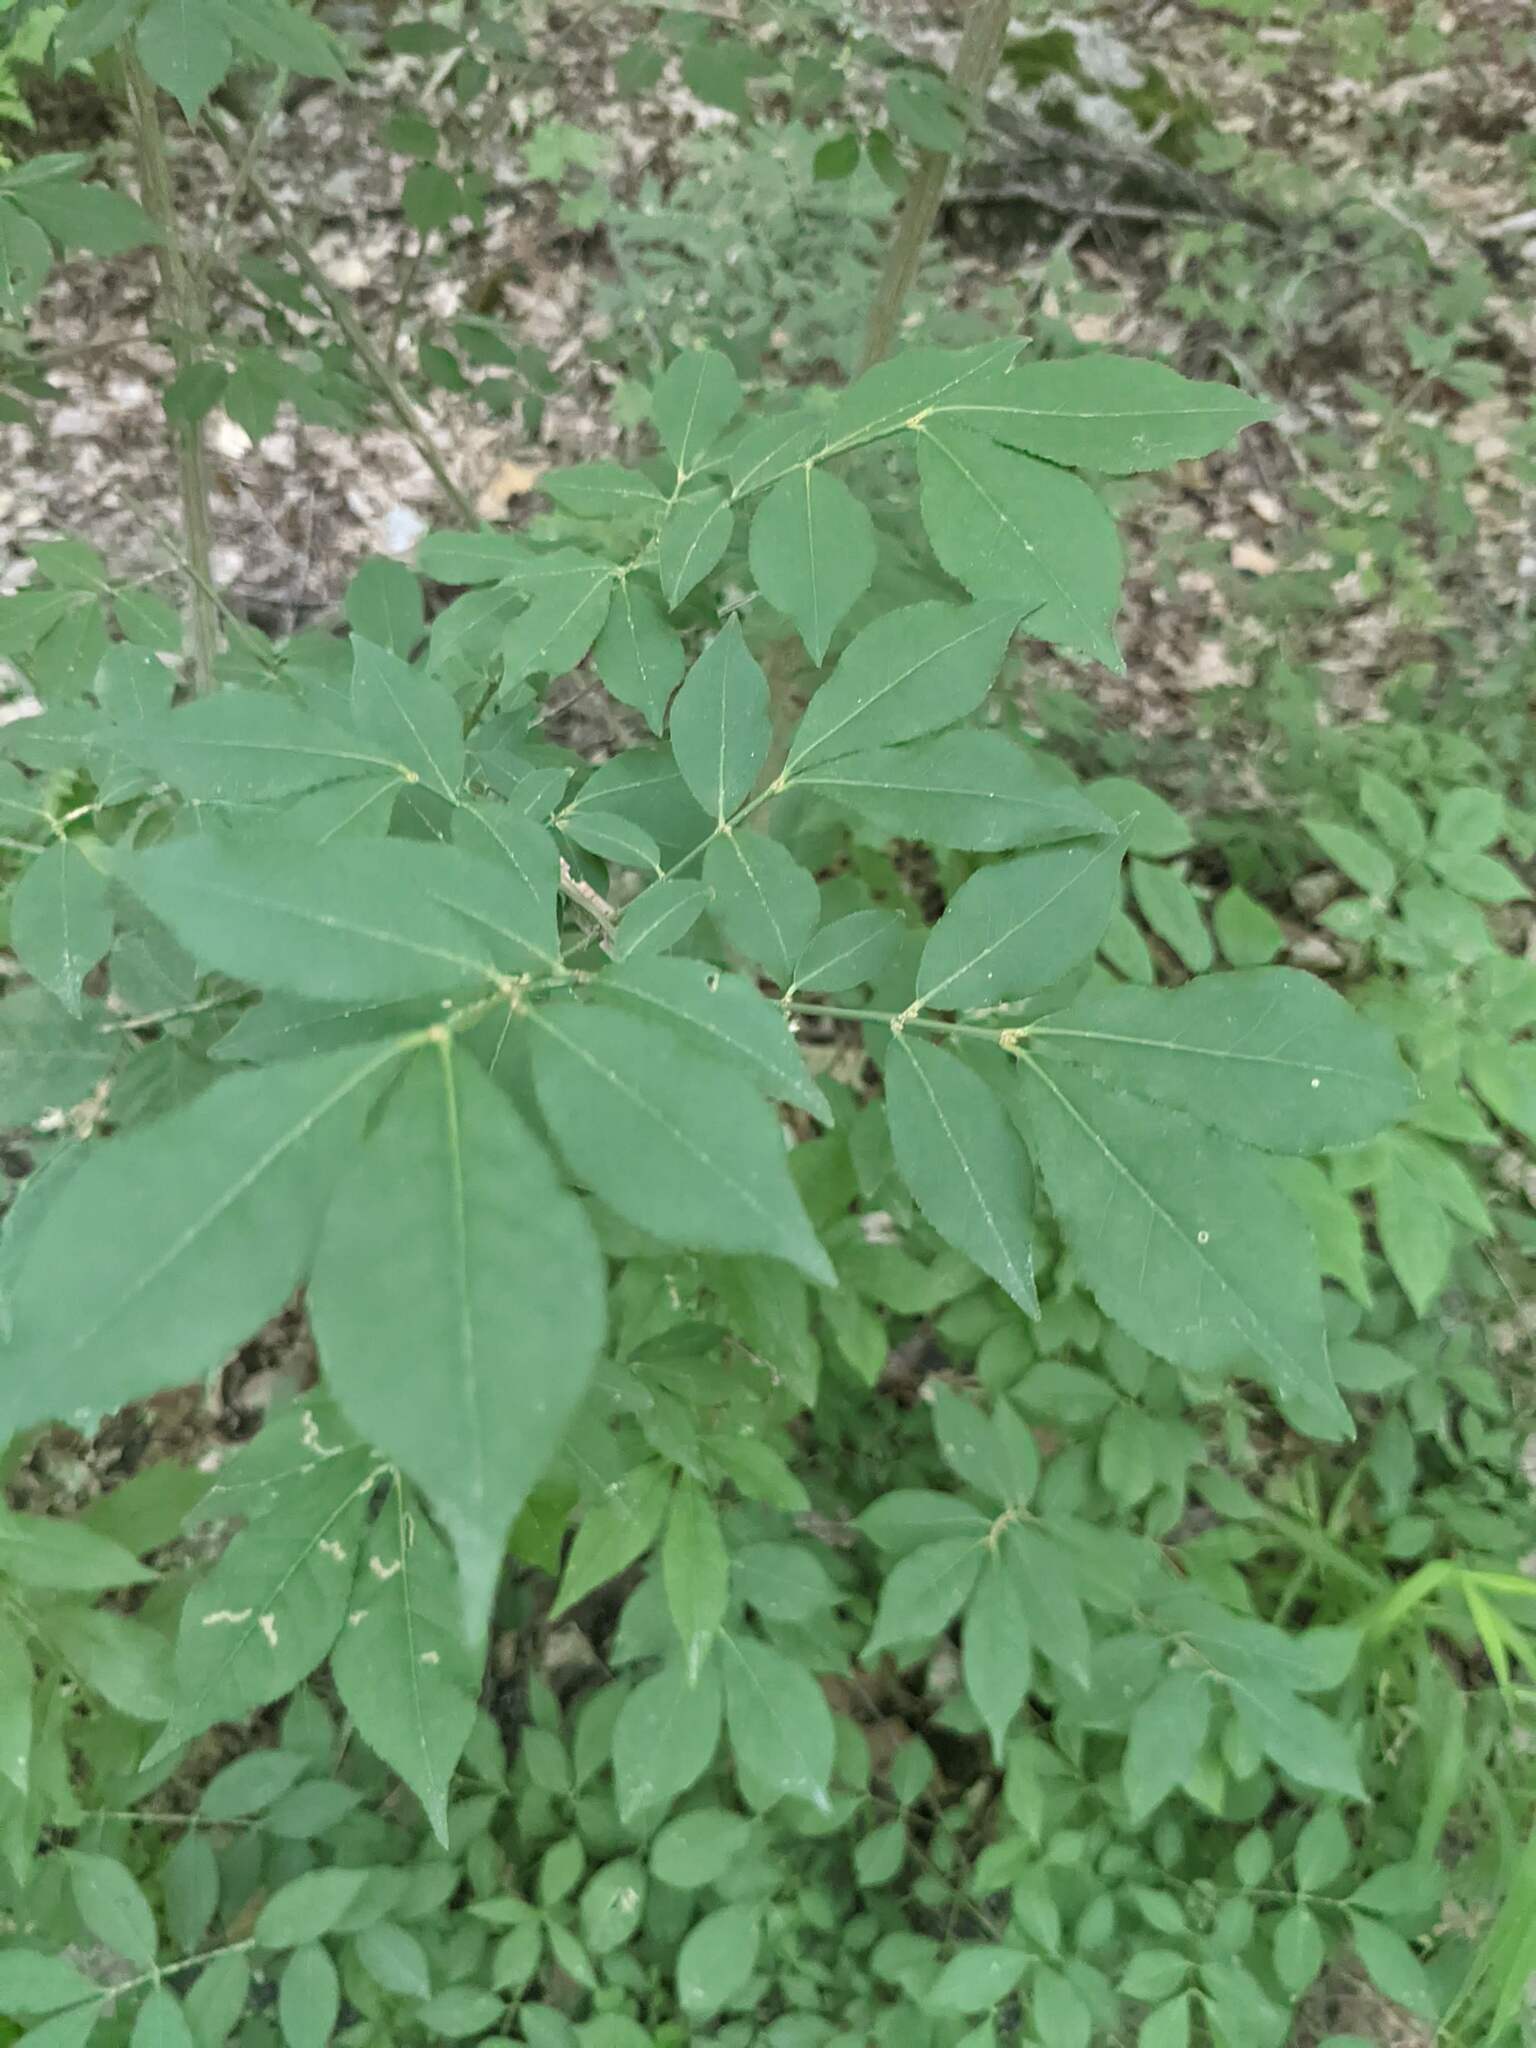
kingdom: Plantae
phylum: Tracheophyta
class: Magnoliopsida
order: Celastrales
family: Celastraceae
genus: Euonymus
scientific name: Euonymus alatus
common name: Winged euonymus
